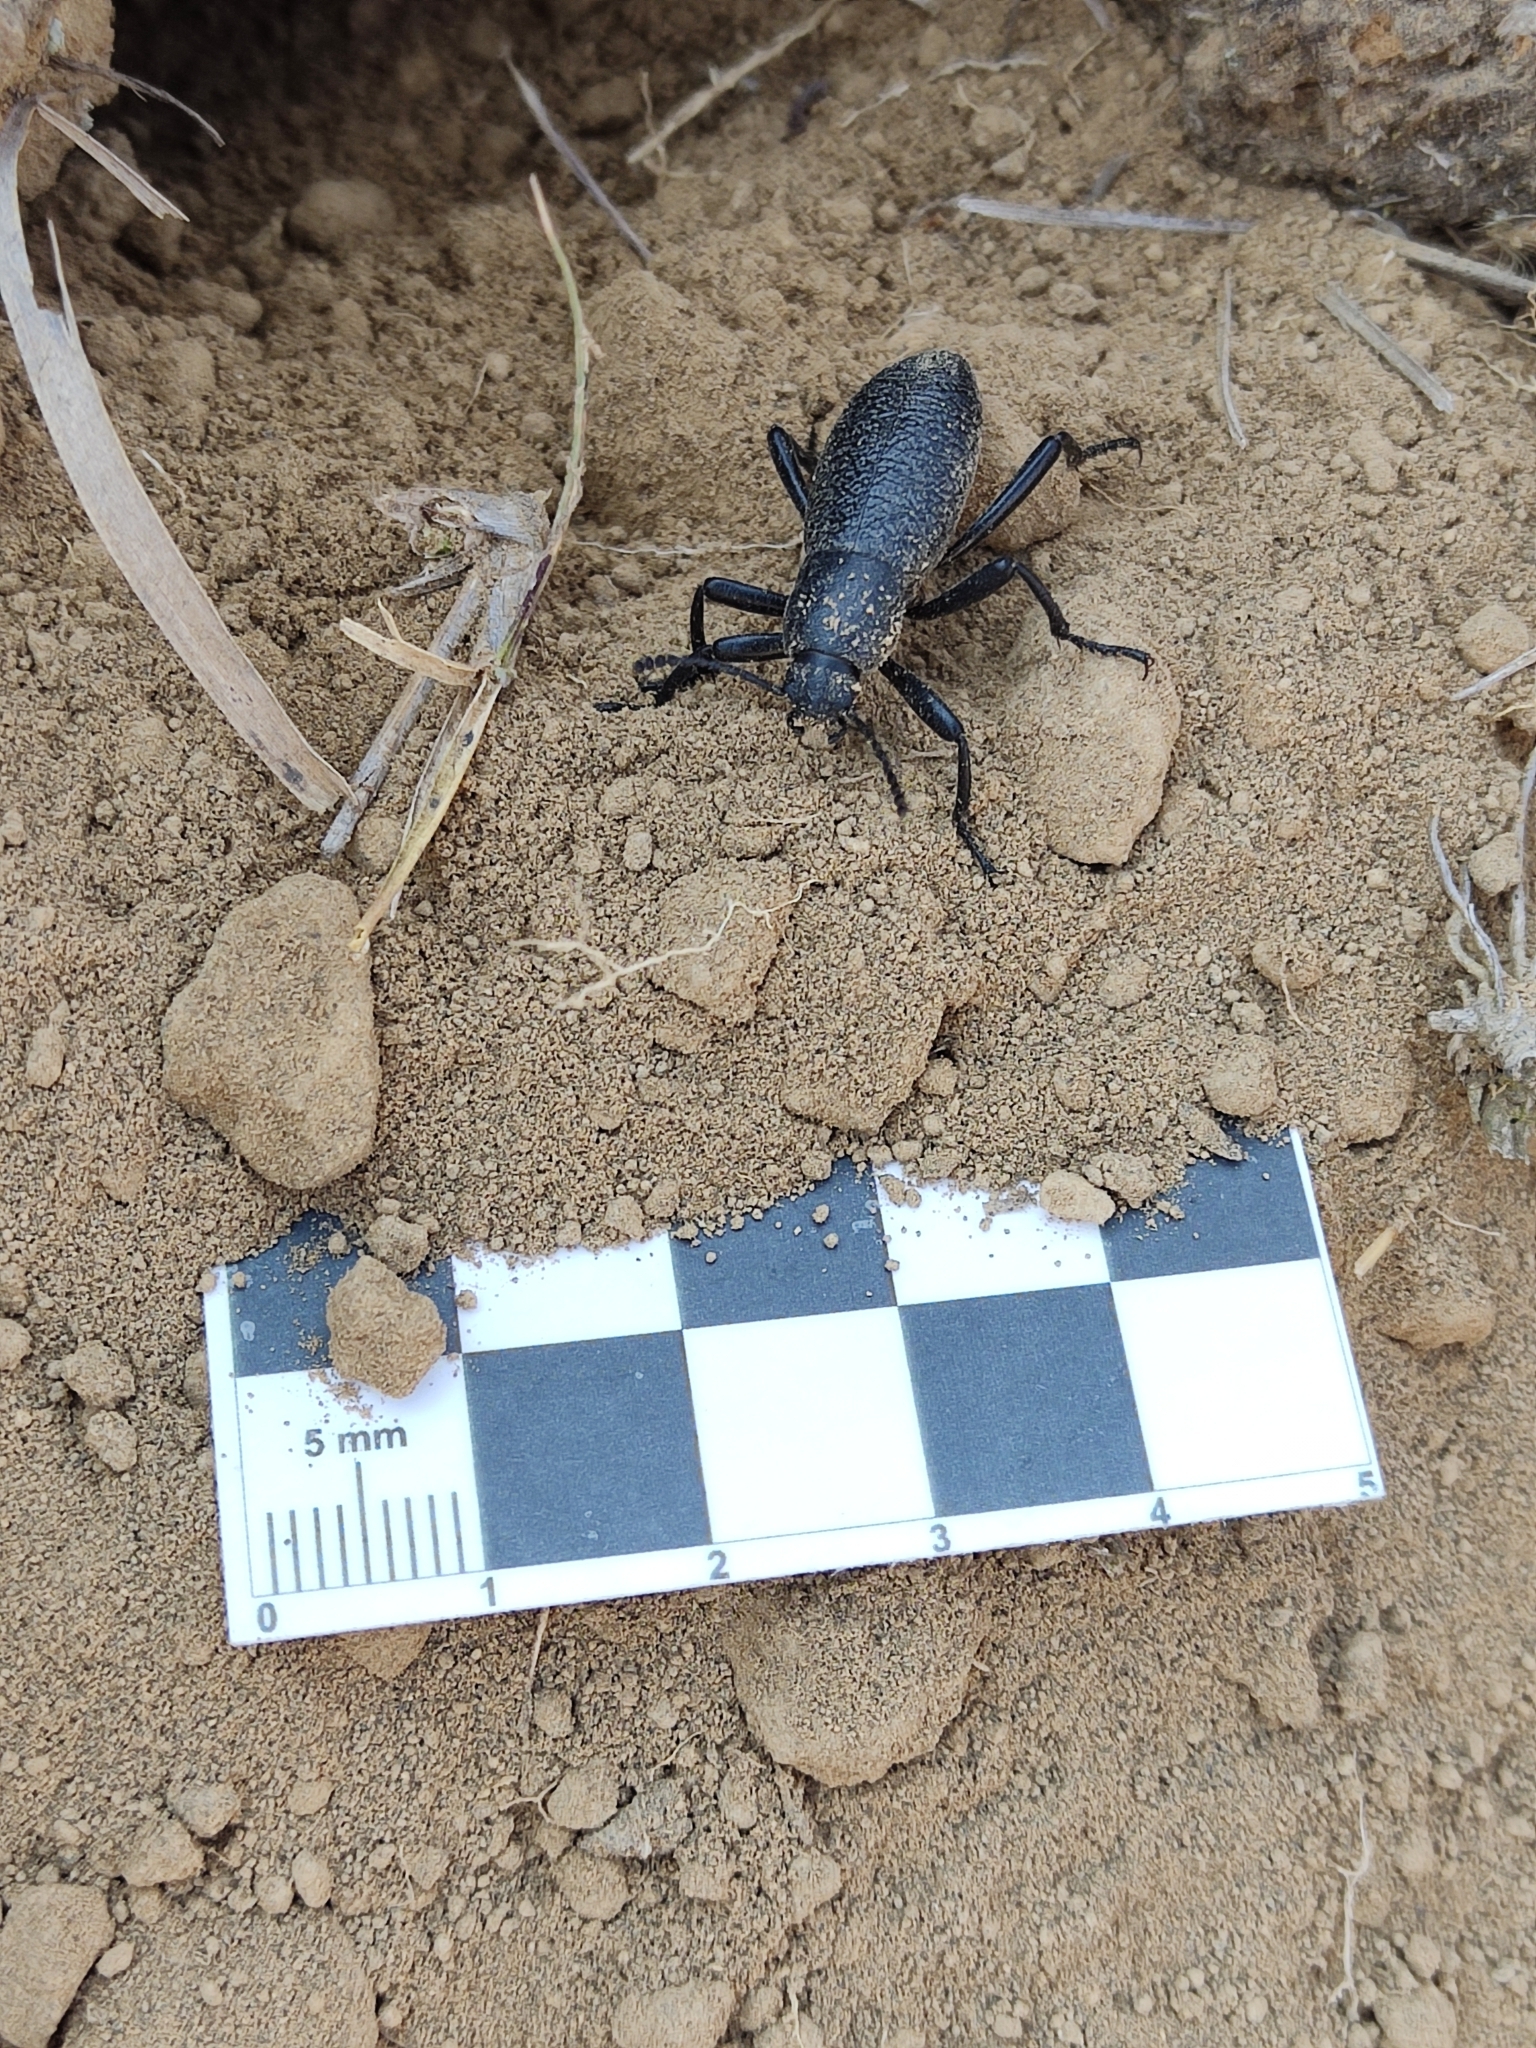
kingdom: Animalia
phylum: Arthropoda
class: Insecta
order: Coleoptera
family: Tenebrionidae
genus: Eleodes
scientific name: Eleodes ruida
